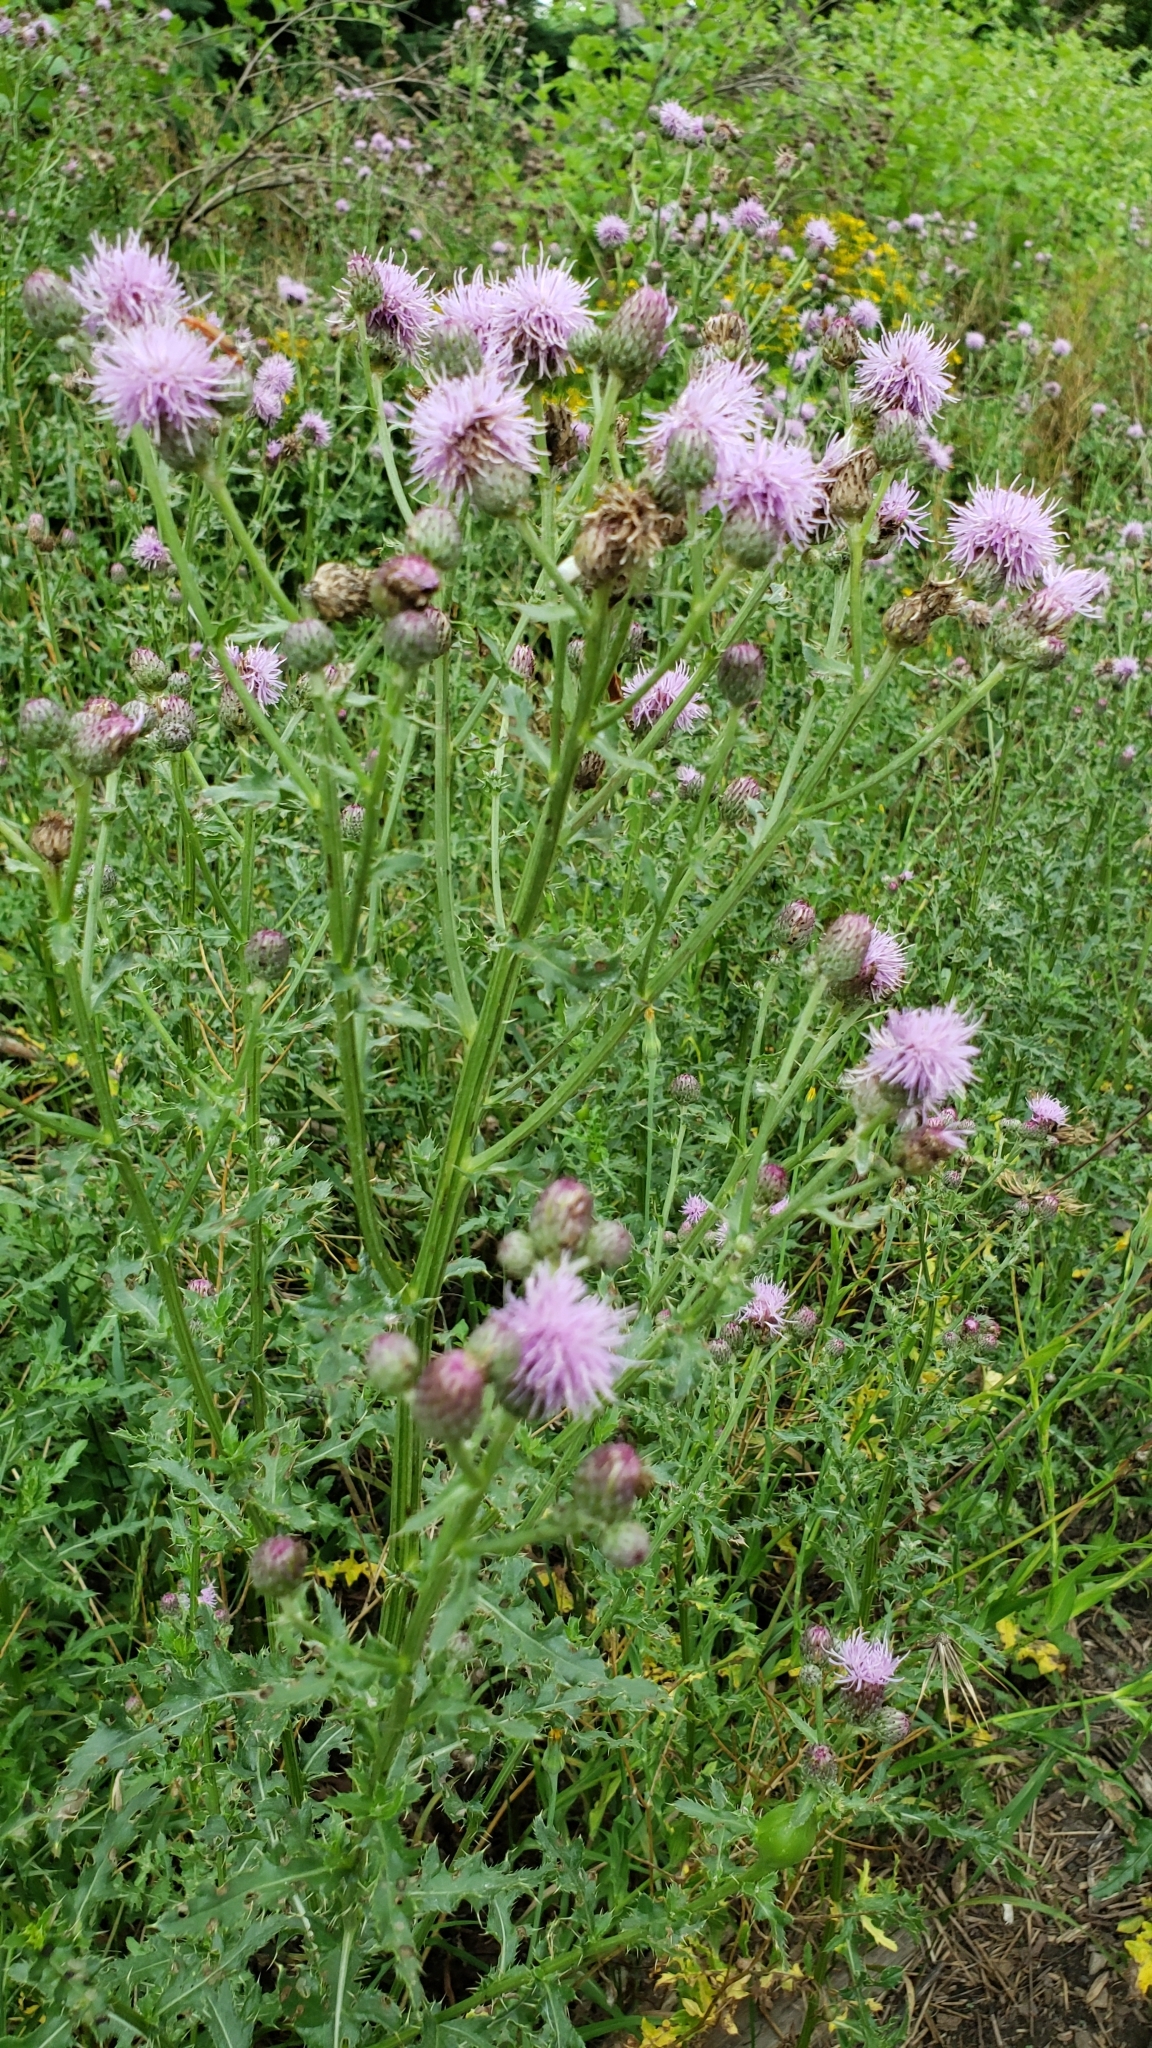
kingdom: Plantae
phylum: Tracheophyta
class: Magnoliopsida
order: Asterales
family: Asteraceae
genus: Cirsium
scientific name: Cirsium arvense
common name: Creeping thistle
